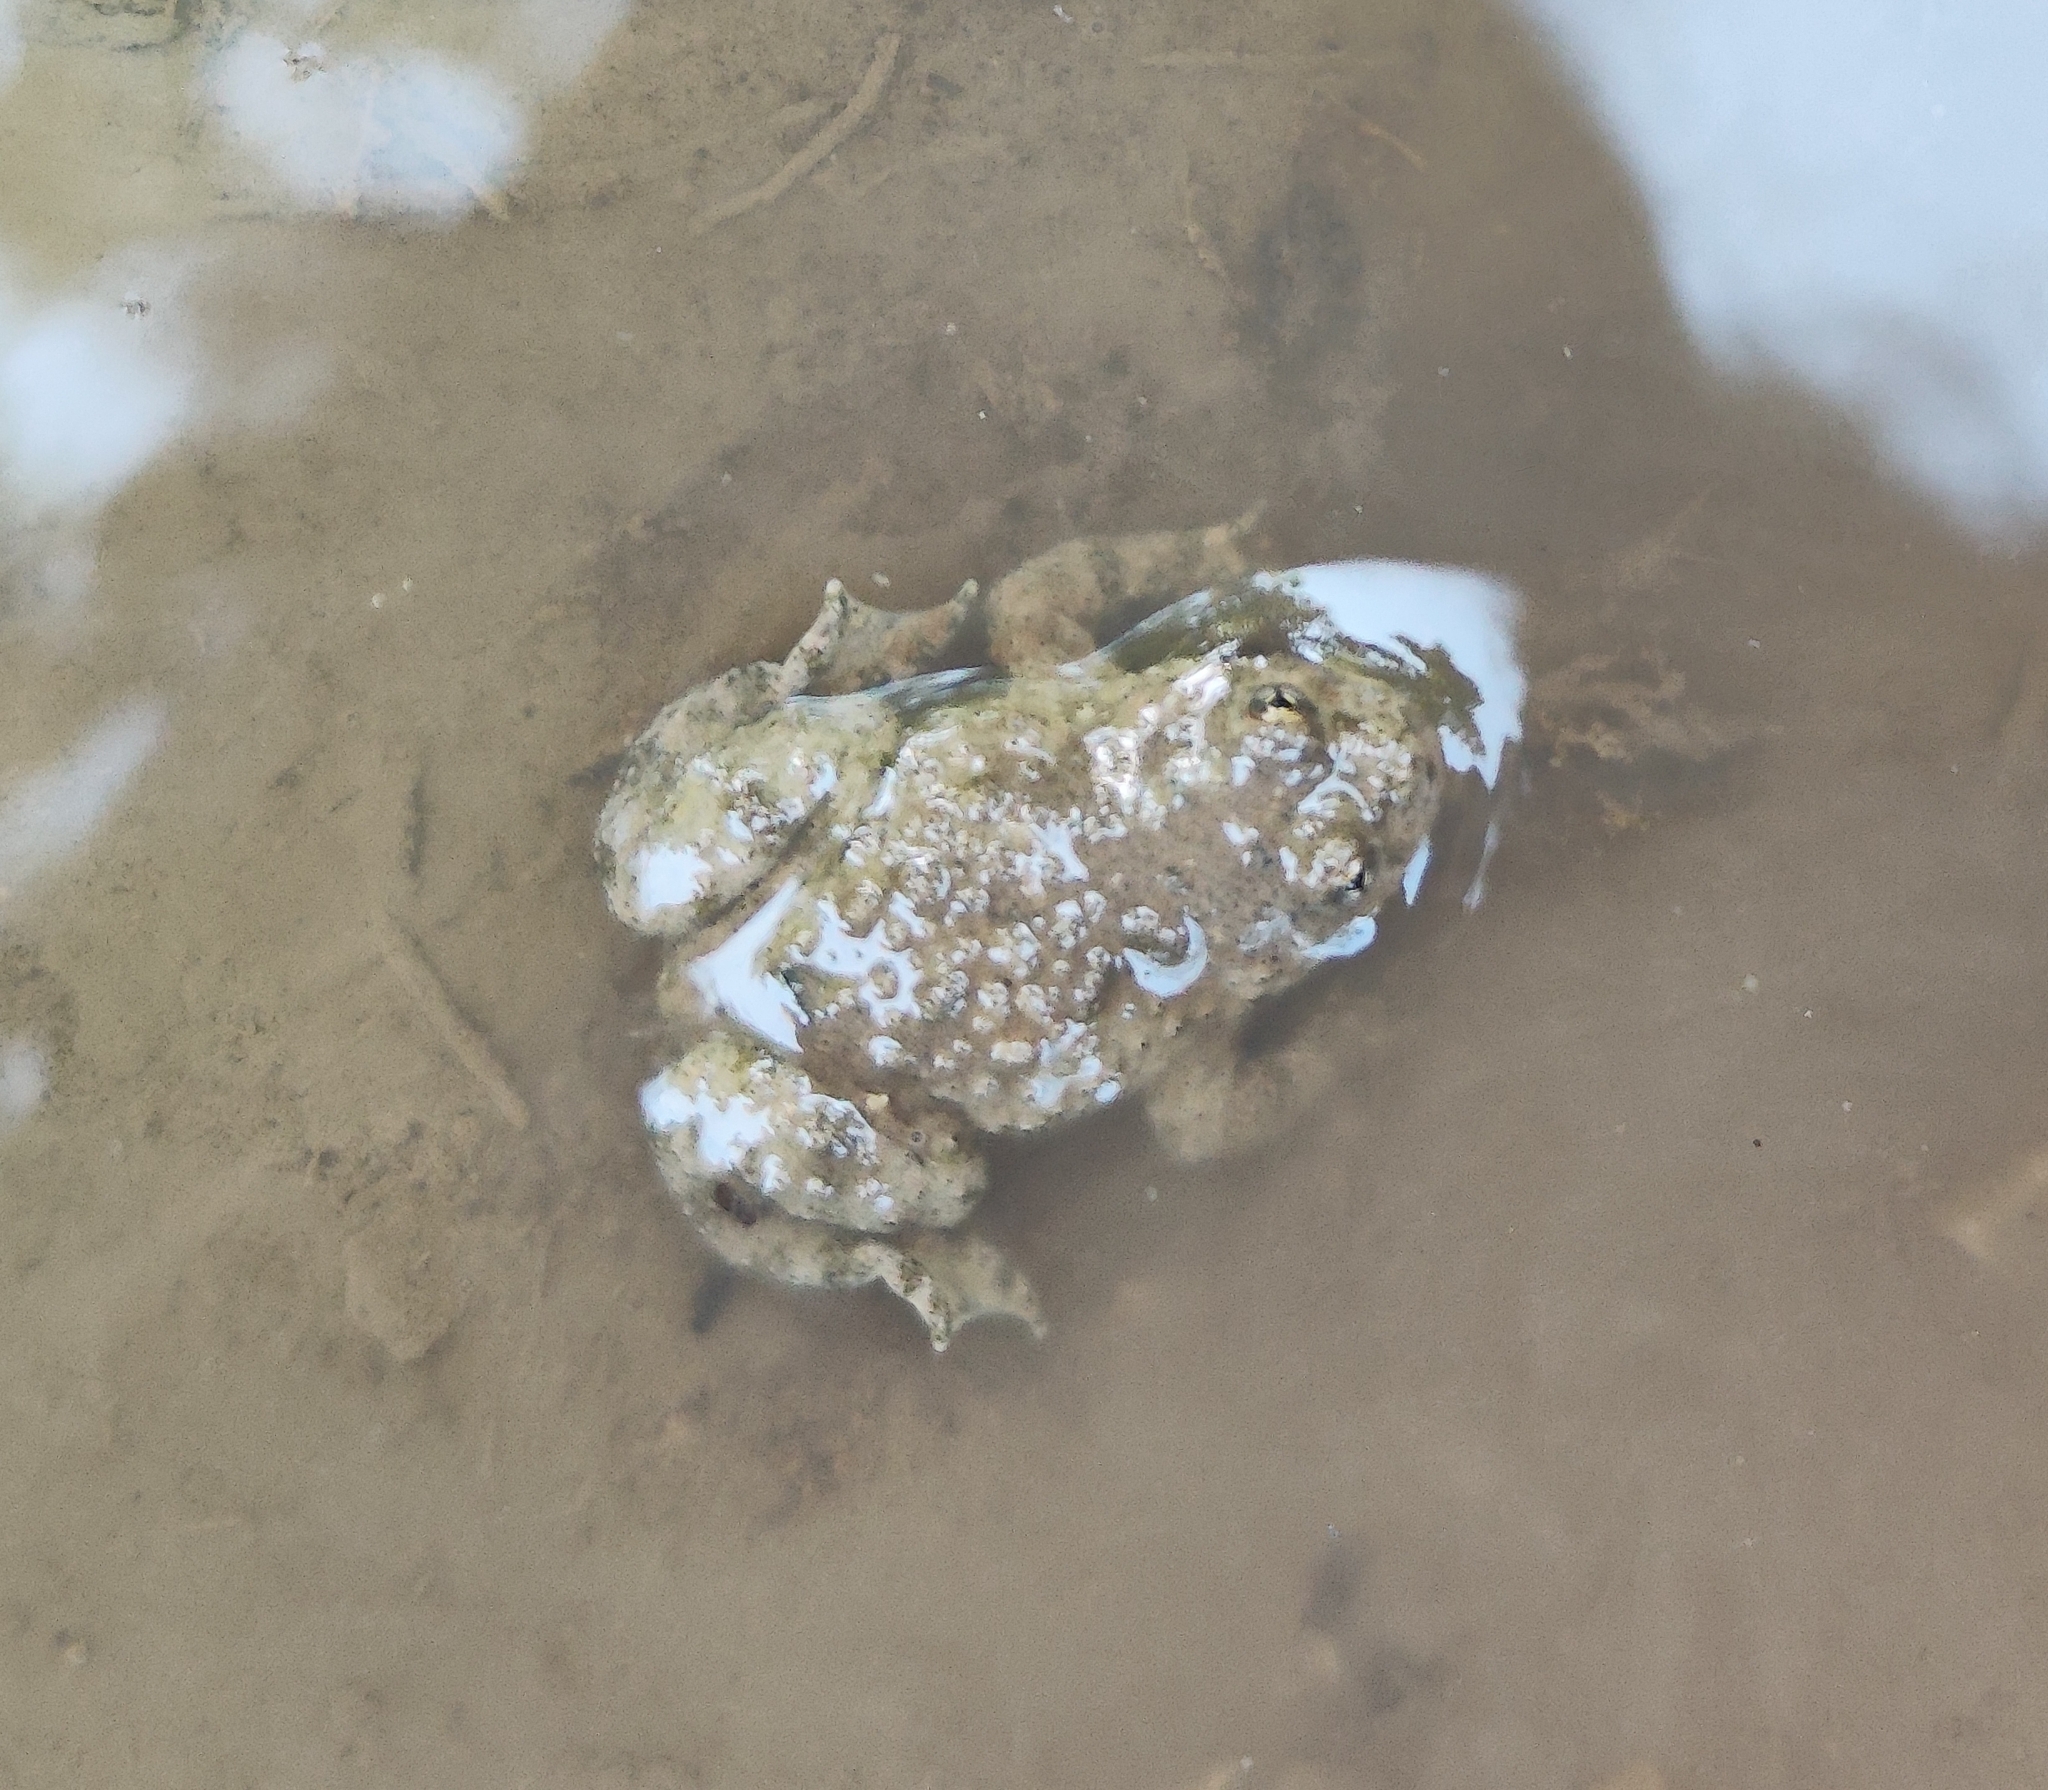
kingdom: Animalia
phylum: Chordata
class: Amphibia
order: Anura
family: Bombinatoridae
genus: Bombina
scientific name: Bombina variegata
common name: Yellow-bellied toad
